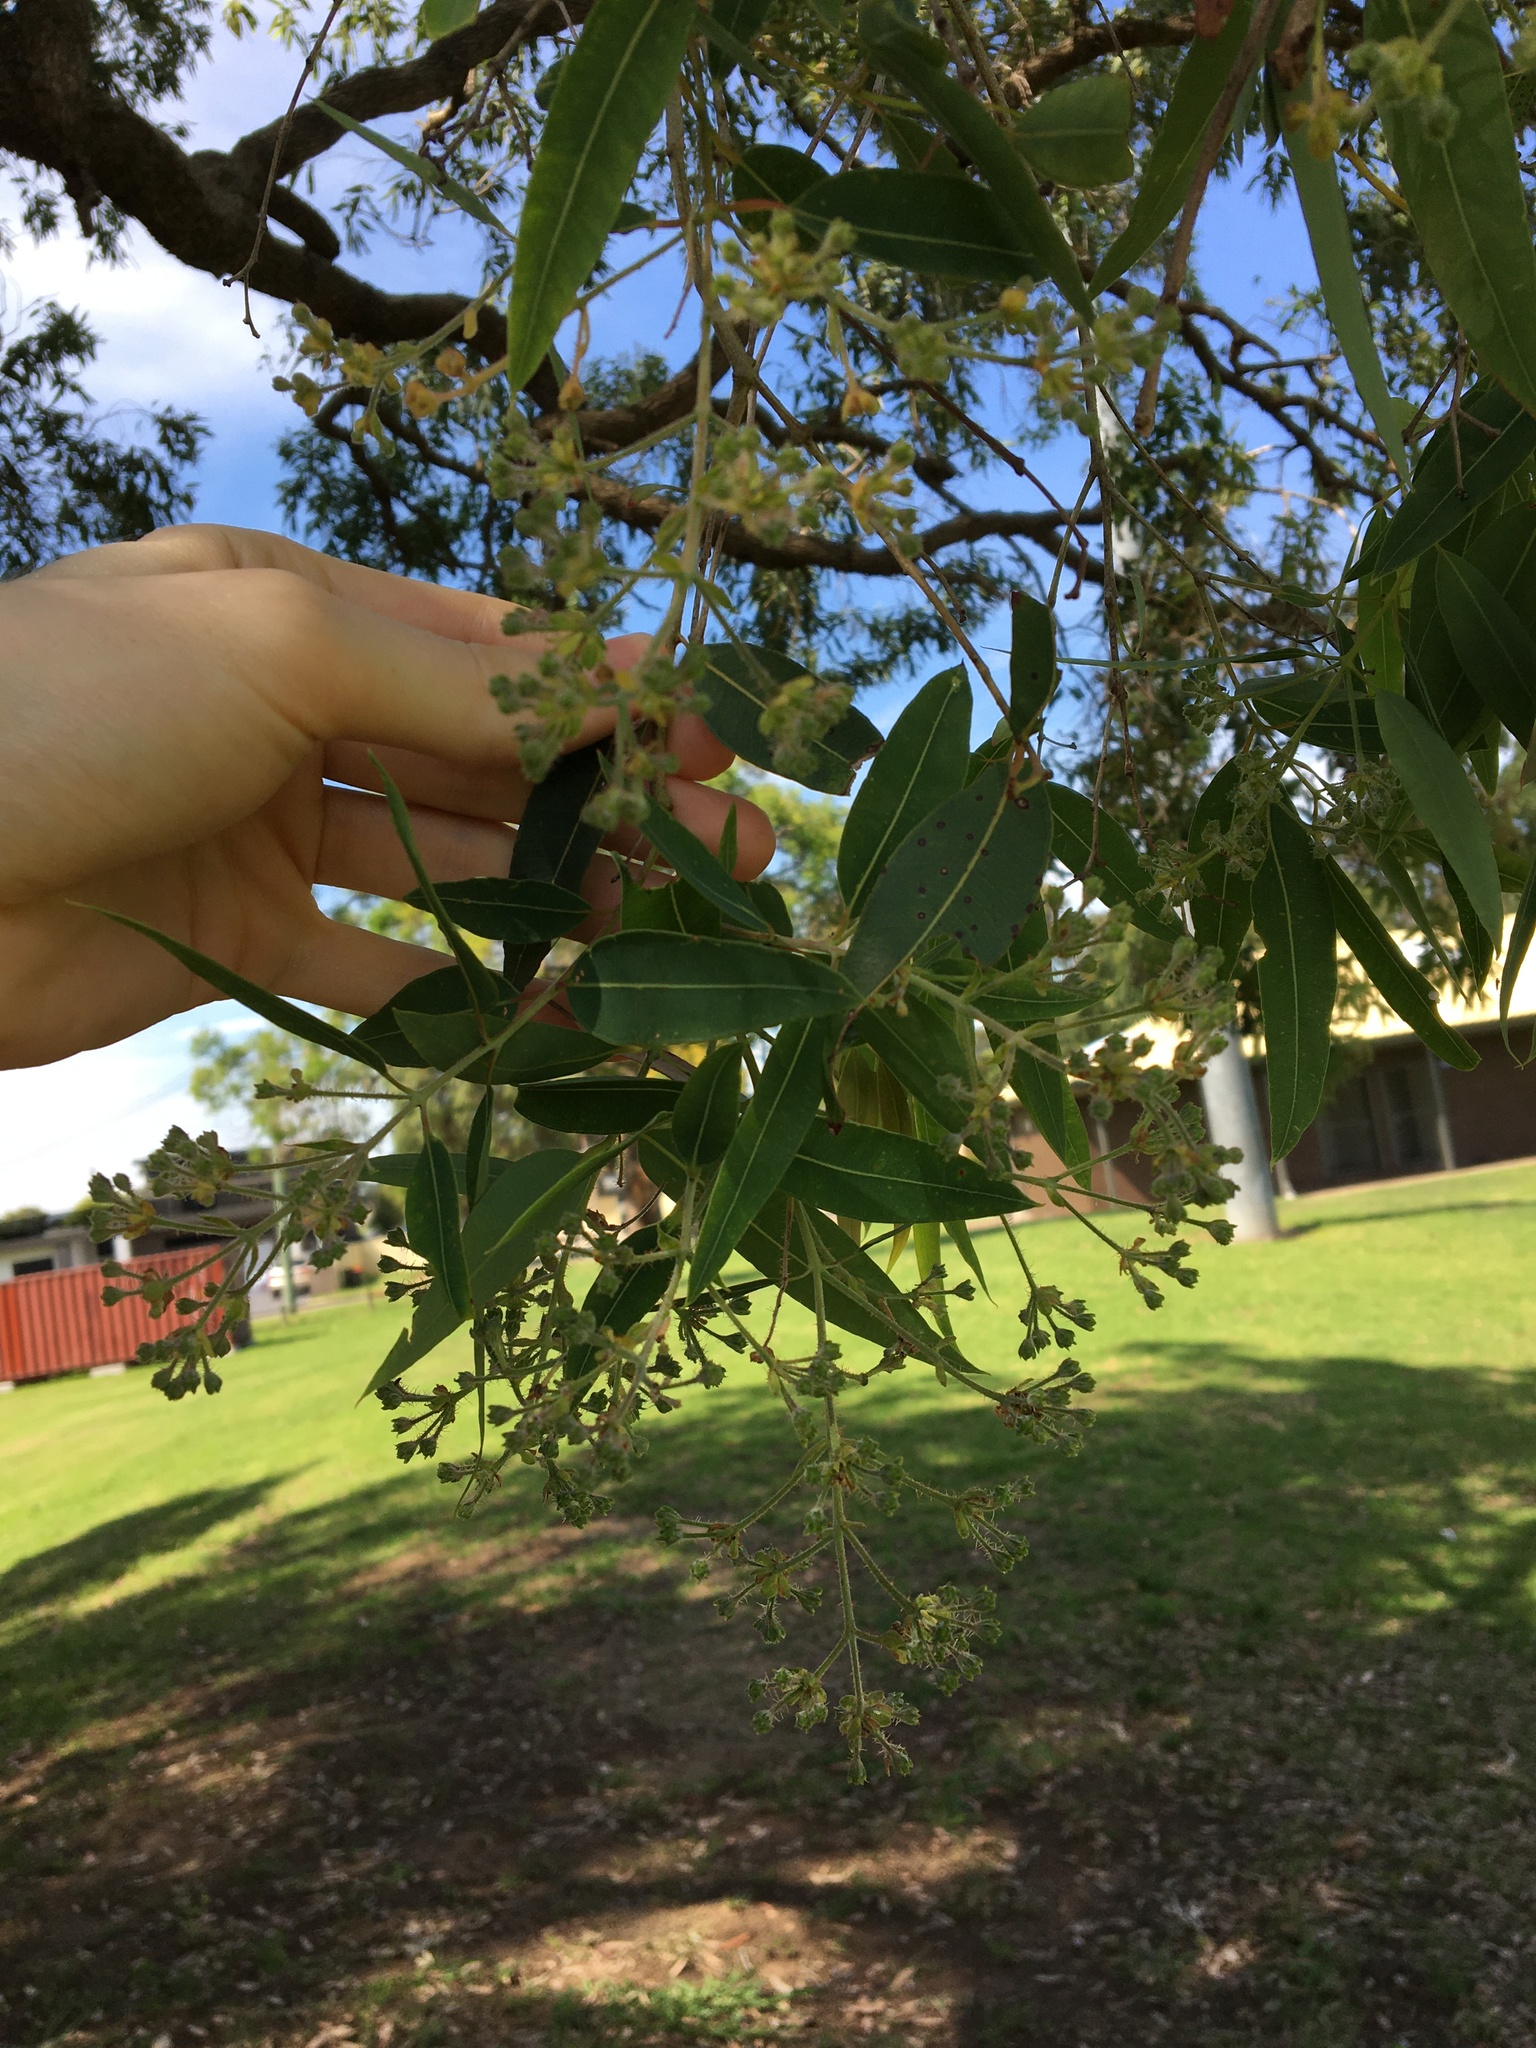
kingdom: Plantae
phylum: Tracheophyta
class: Magnoliopsida
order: Myrtales
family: Myrtaceae
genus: Angophora
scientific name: Angophora floribunda
